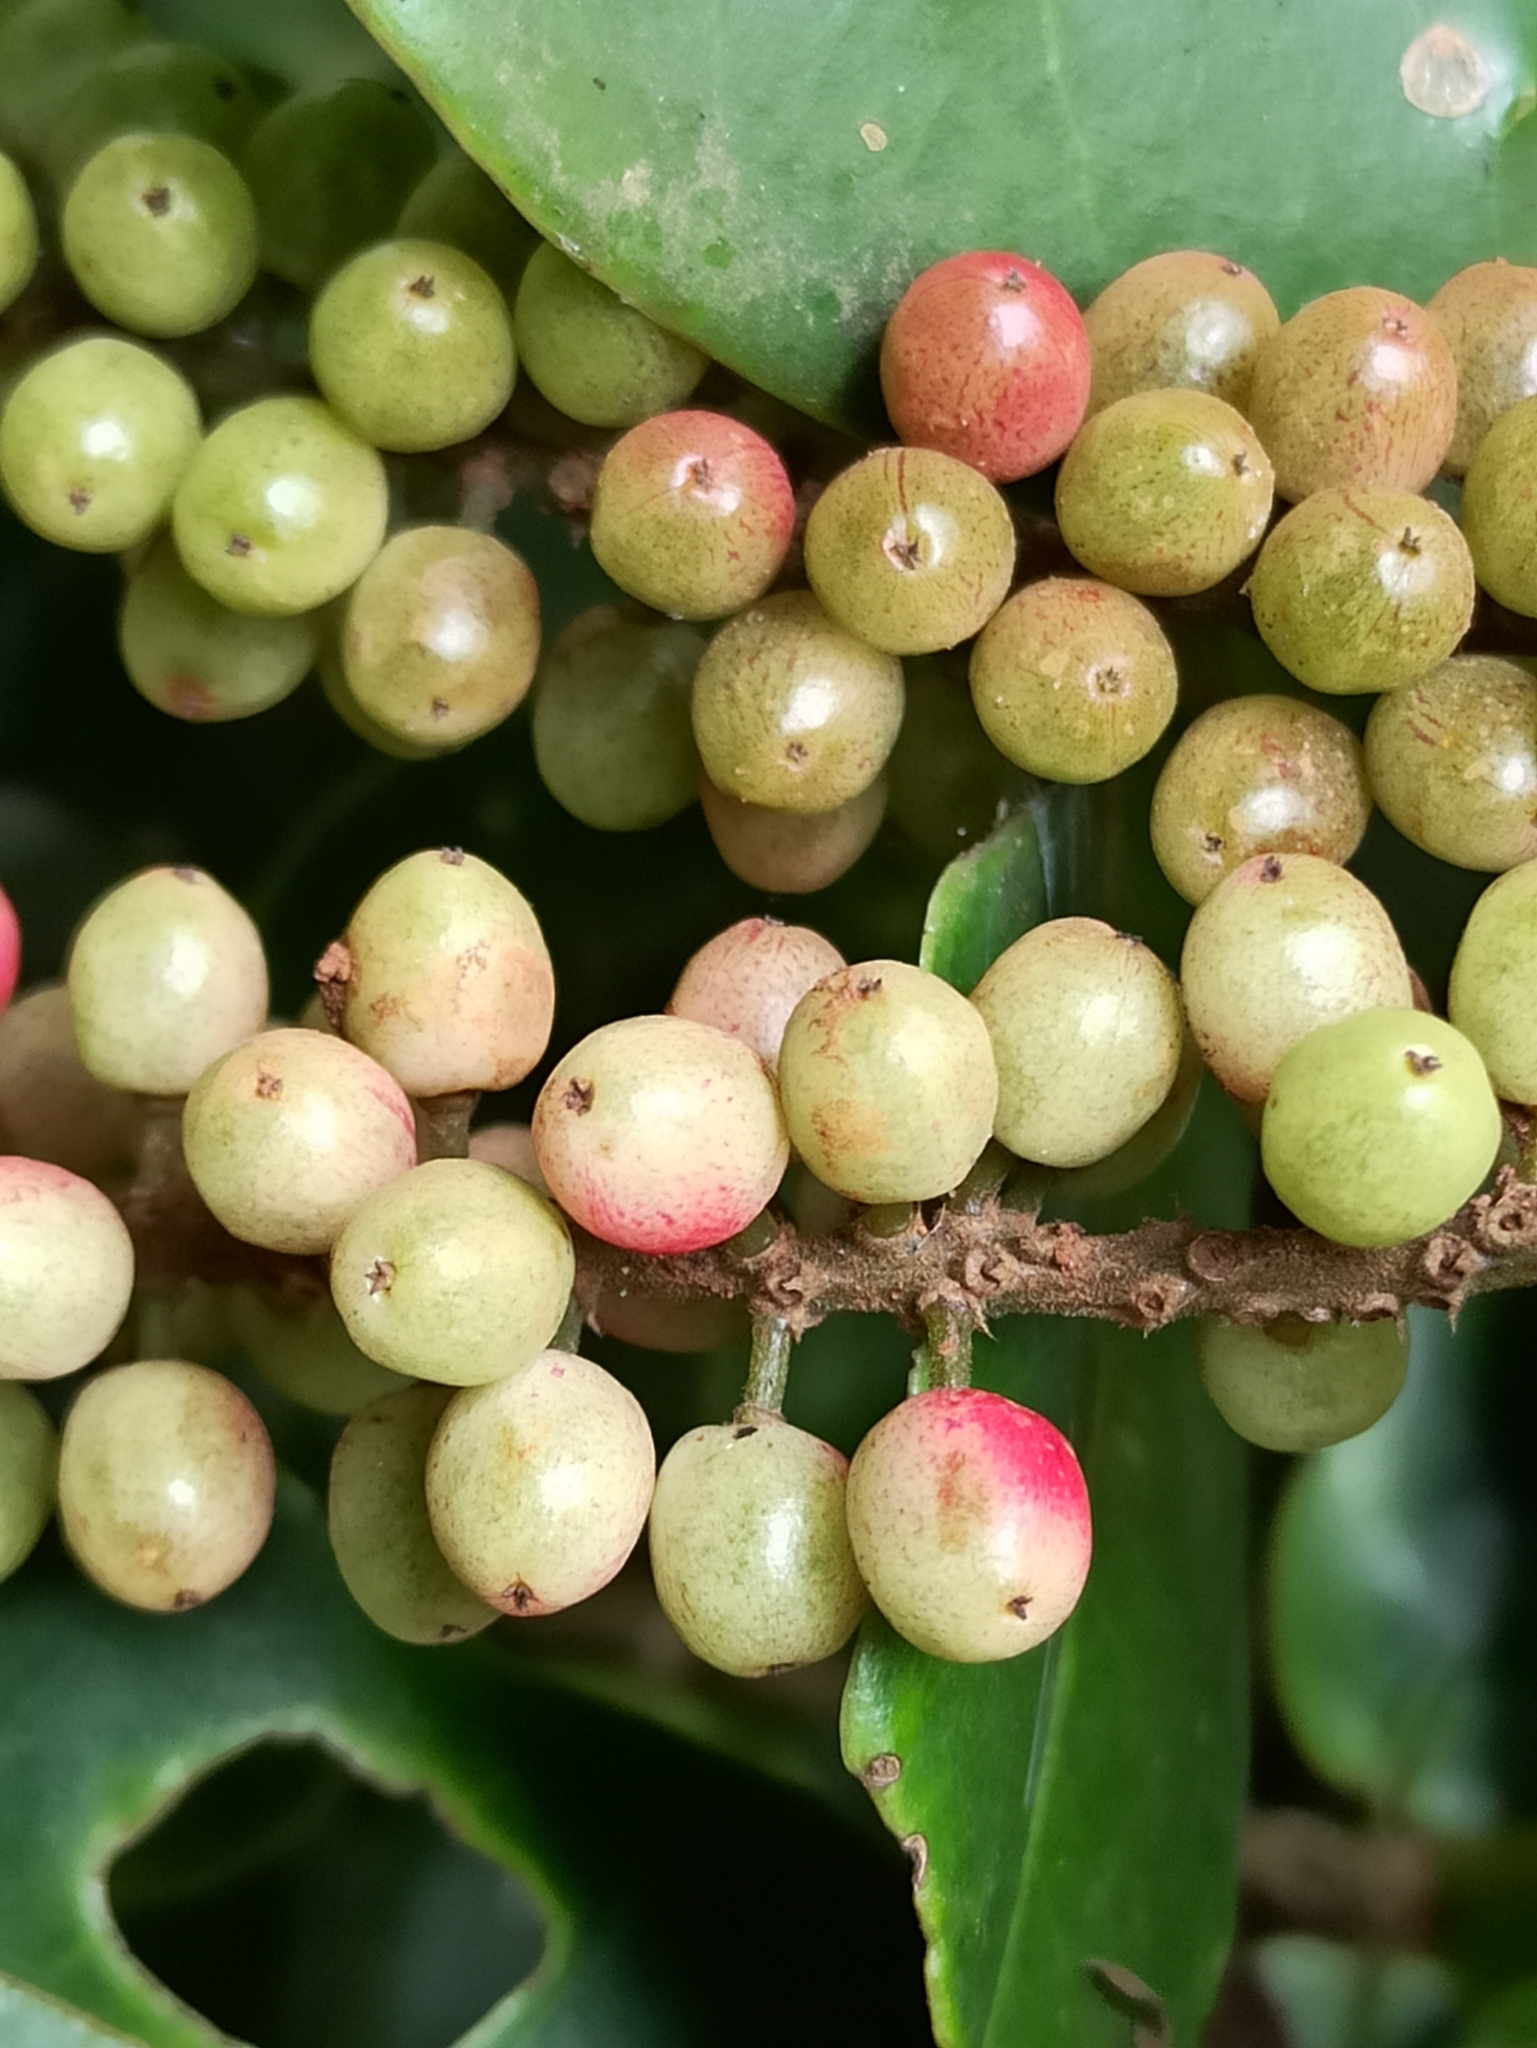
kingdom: Plantae
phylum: Tracheophyta
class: Magnoliopsida
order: Malpighiales
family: Phyllanthaceae
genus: Antidesma
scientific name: Antidesma montanum
